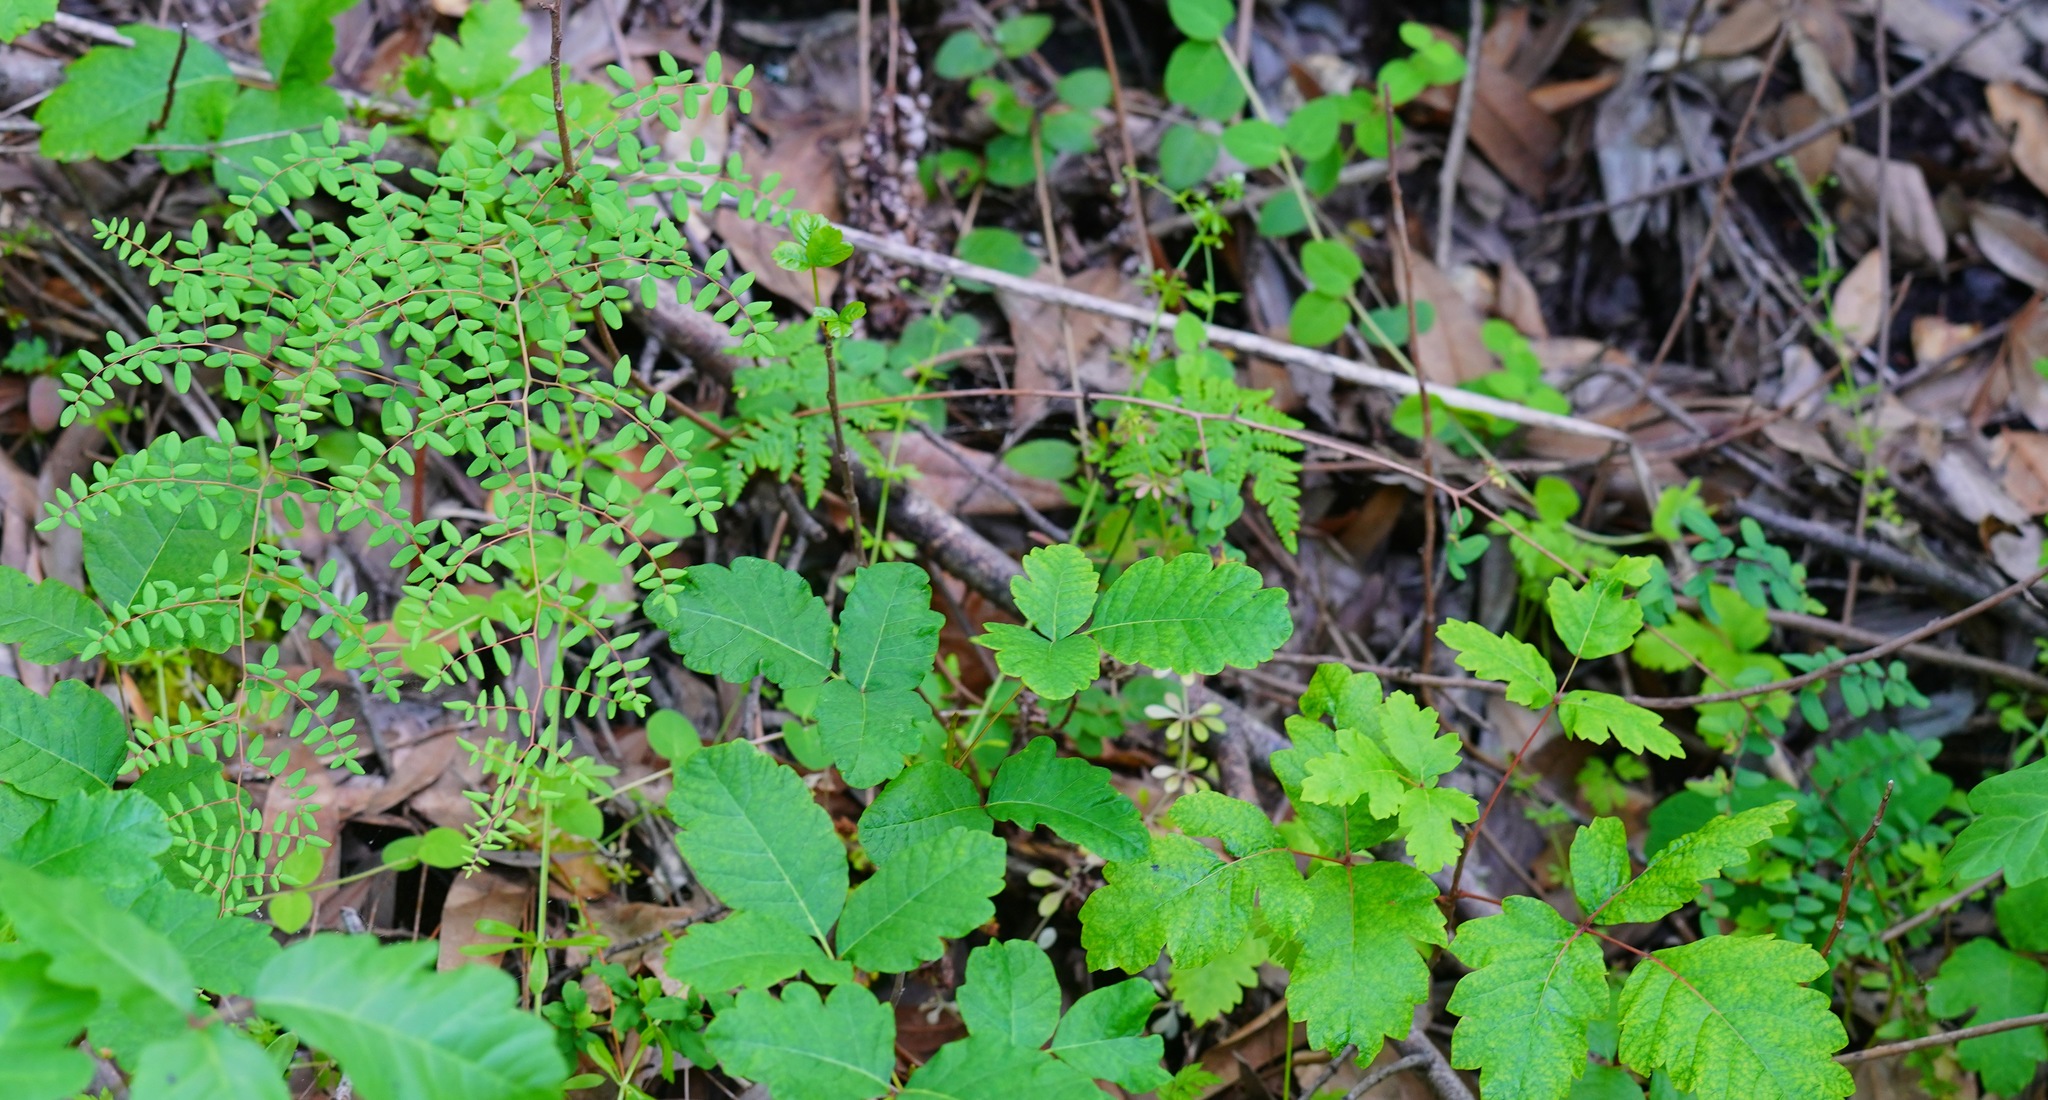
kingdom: Plantae
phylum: Tracheophyta
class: Polypodiopsida
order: Polypodiales
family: Pteridaceae
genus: Pellaea
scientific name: Pellaea andromedifolia
